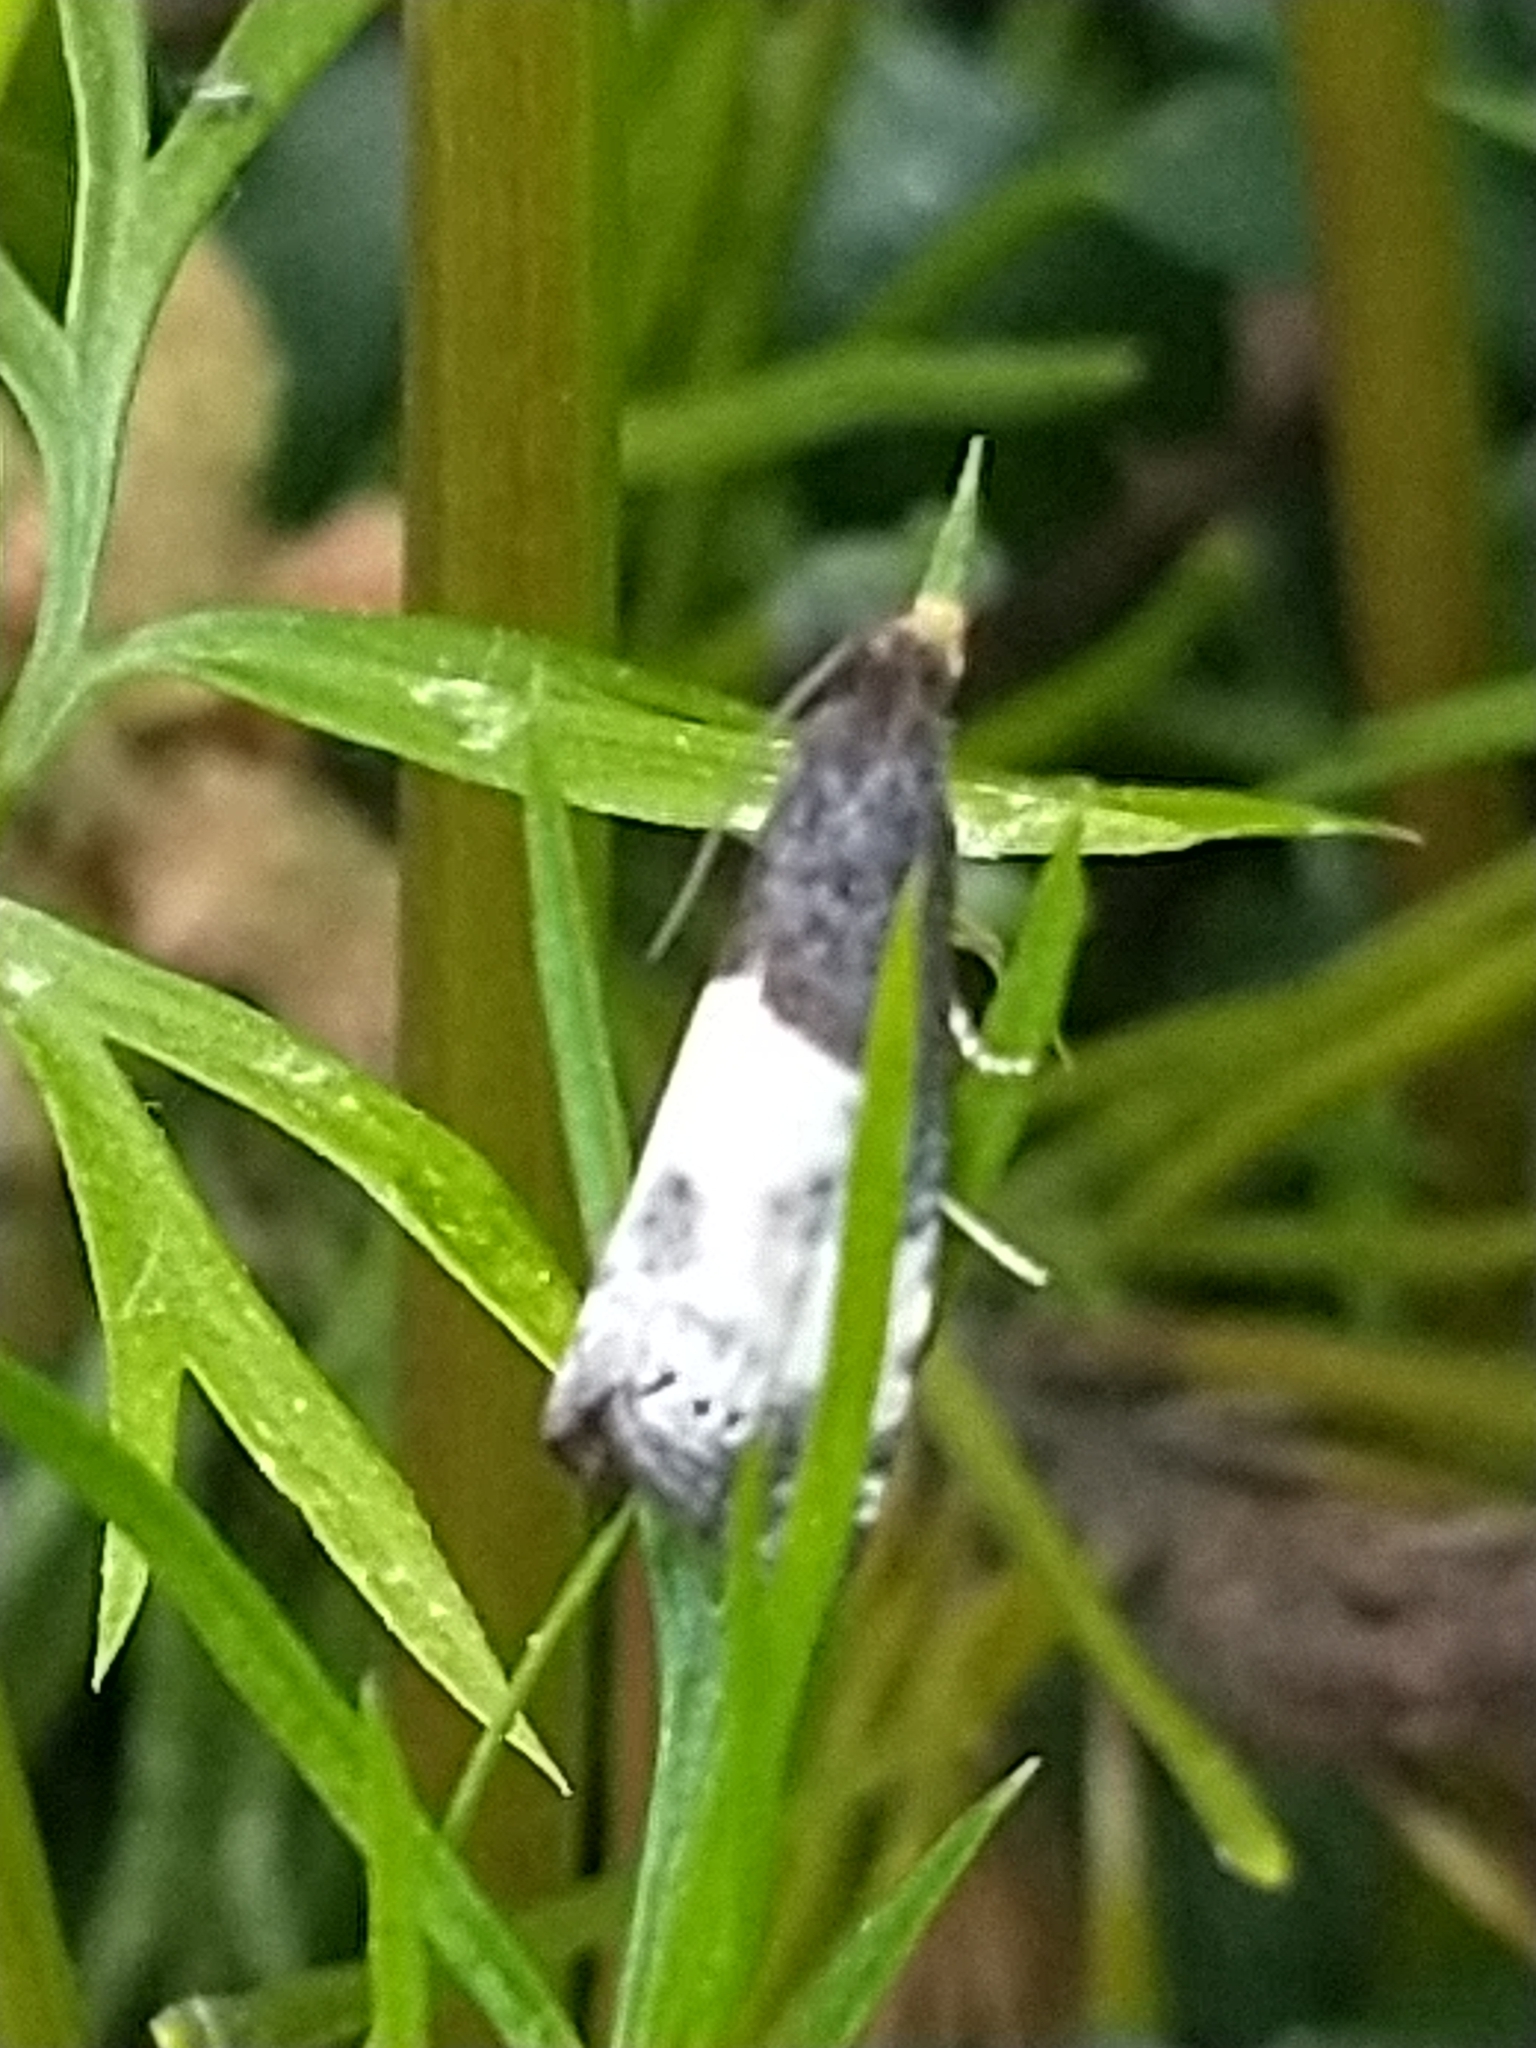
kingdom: Animalia
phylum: Arthropoda
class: Insecta
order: Lepidoptera
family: Tortricidae
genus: Notocelia
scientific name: Notocelia cynosbatella
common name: Yellow-faced bell moth
